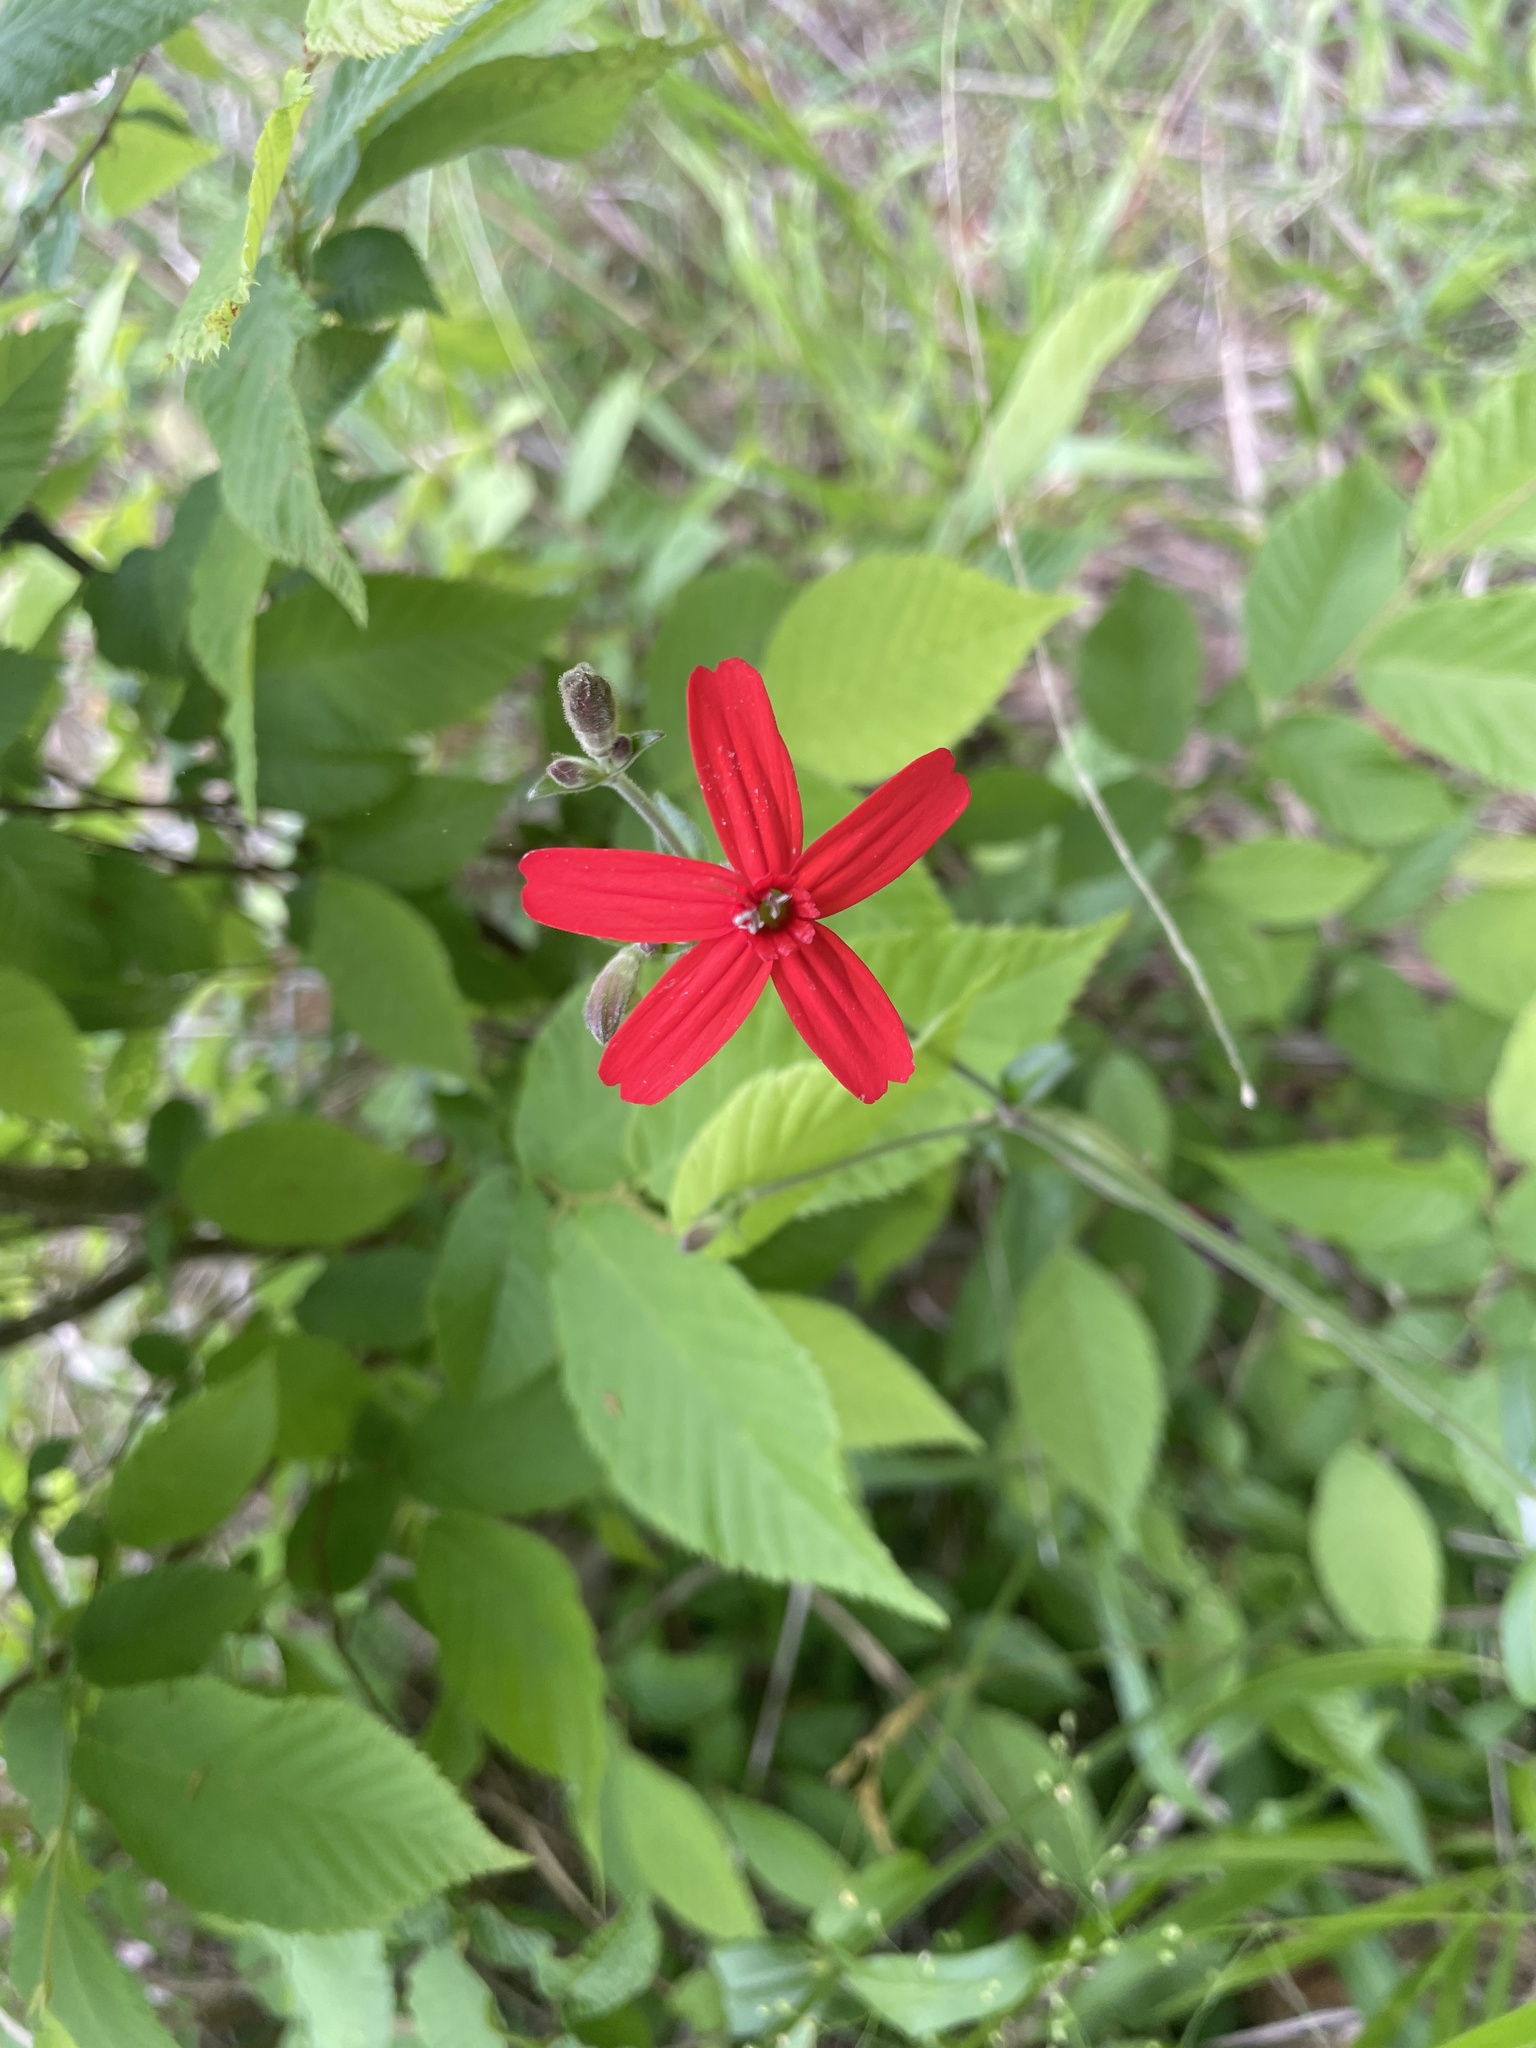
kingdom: Plantae
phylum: Tracheophyta
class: Magnoliopsida
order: Caryophyllales
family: Caryophyllaceae
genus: Silene
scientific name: Silene virginica
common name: Fire-pink
